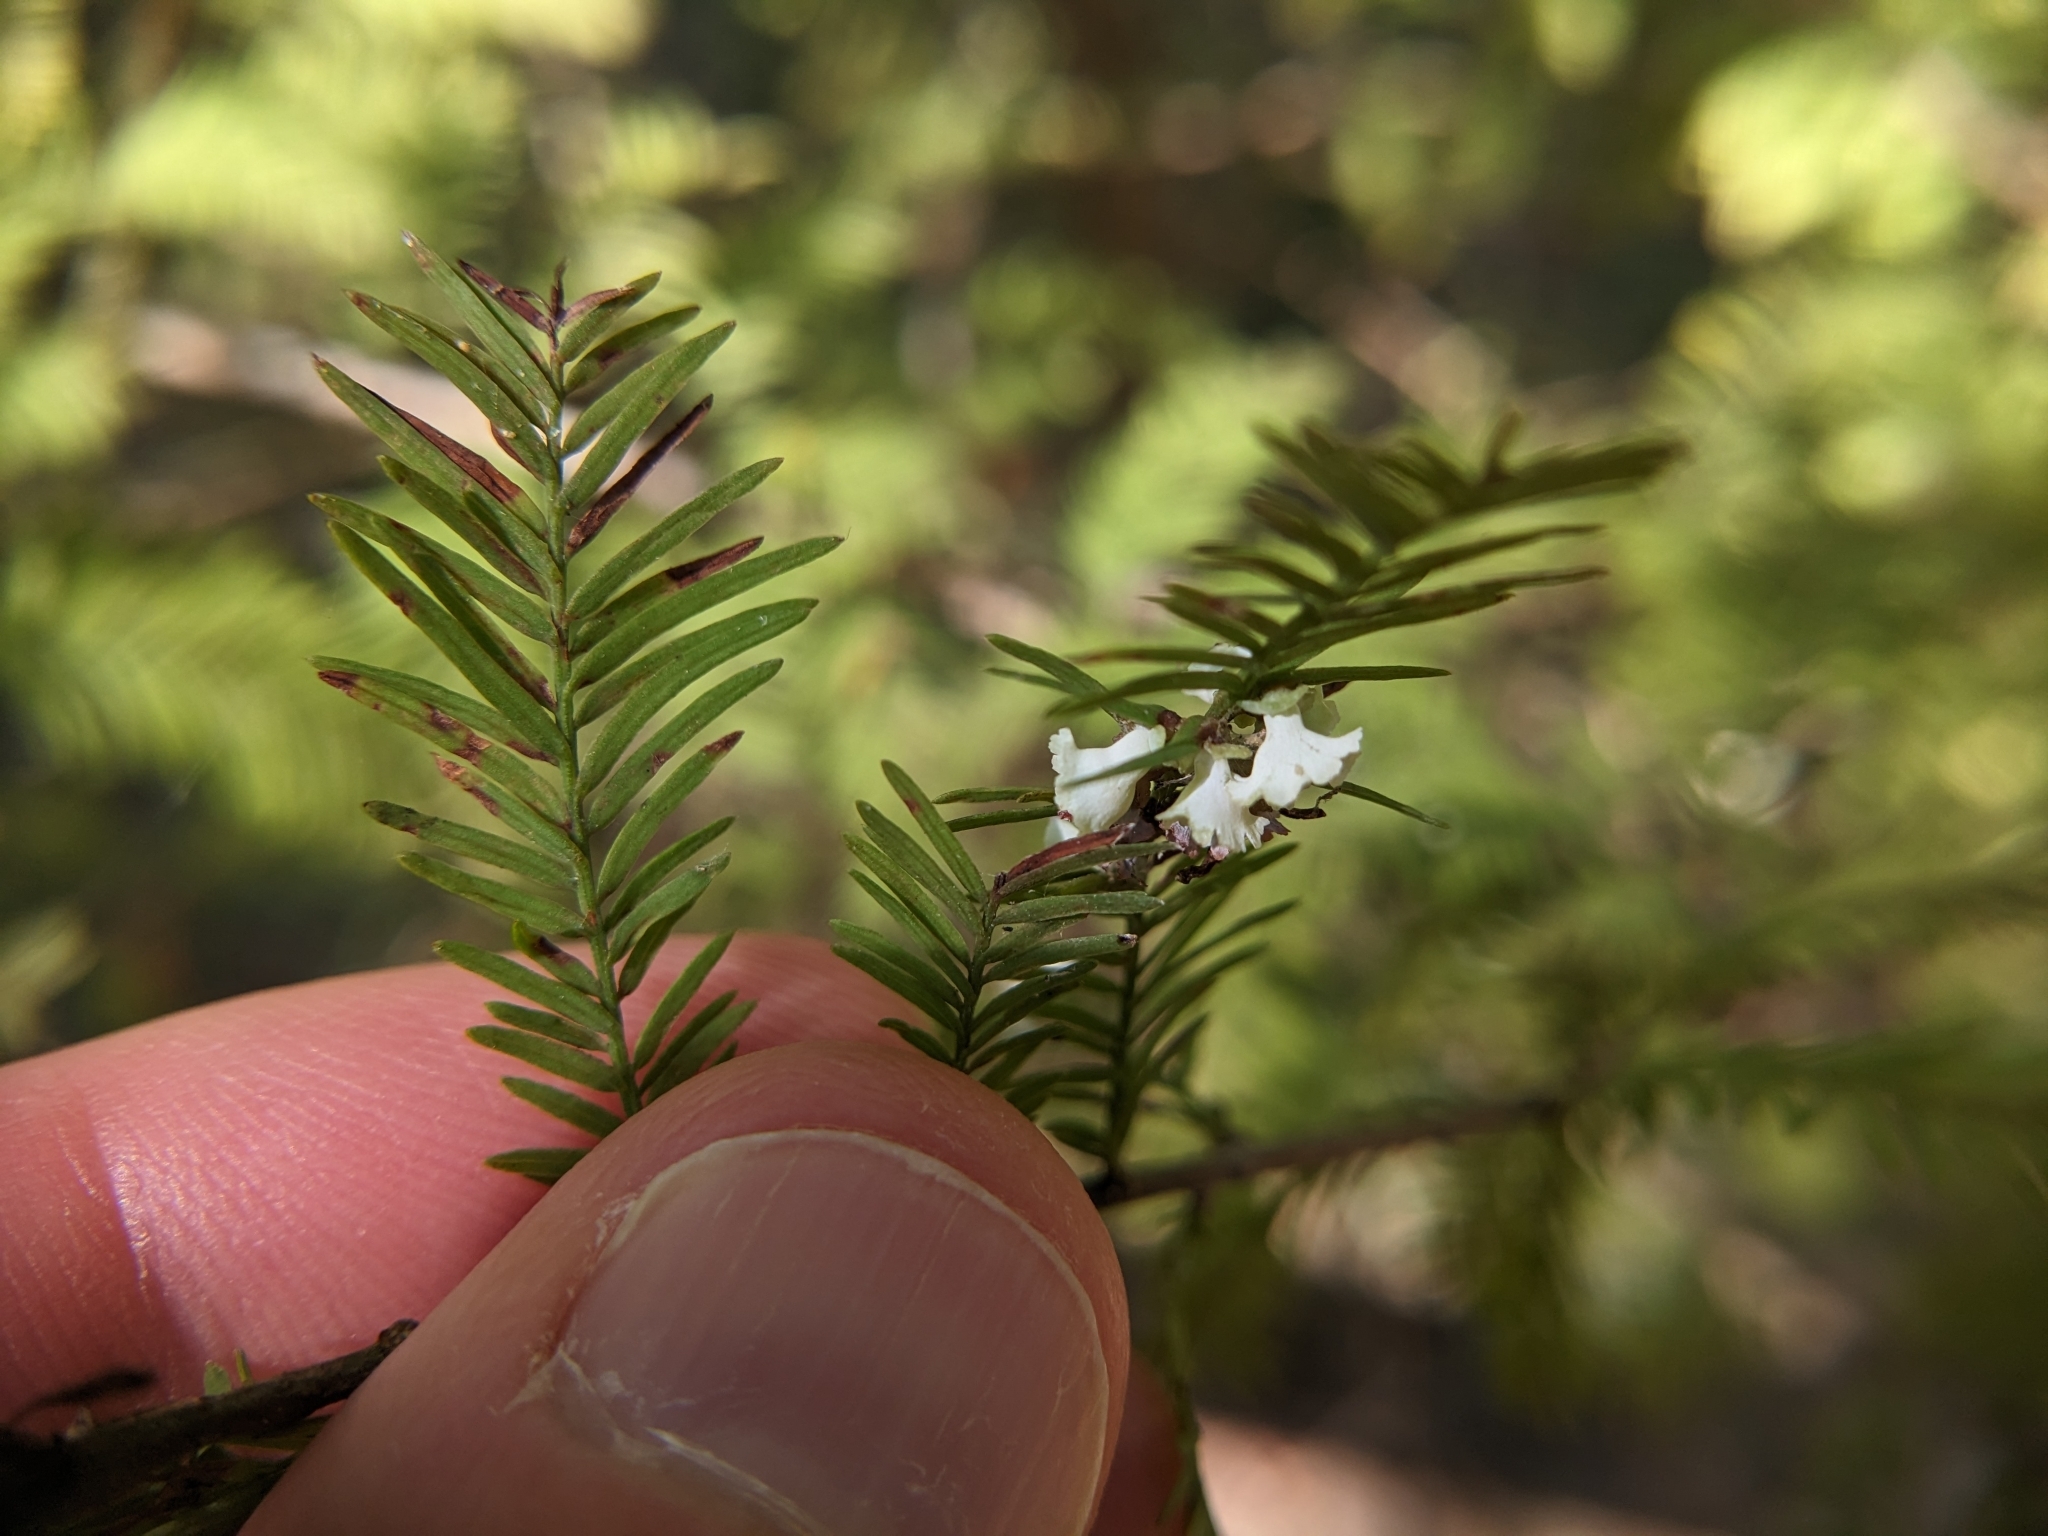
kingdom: Animalia
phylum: Arthropoda
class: Insecta
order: Diptera
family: Cecidomyiidae
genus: Taxodiomyia
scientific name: Taxodiomyia cupressi
